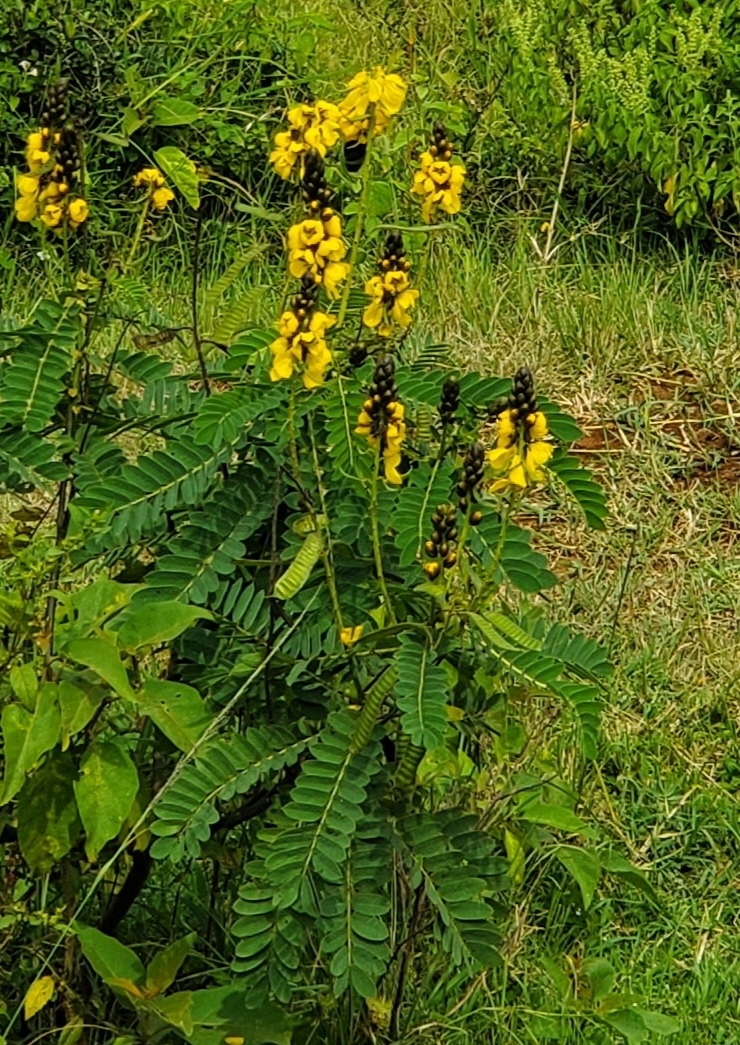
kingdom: Plantae
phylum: Tracheophyta
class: Magnoliopsida
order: Fabales
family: Fabaceae
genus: Senna
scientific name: Senna didymobotrya
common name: African senna
